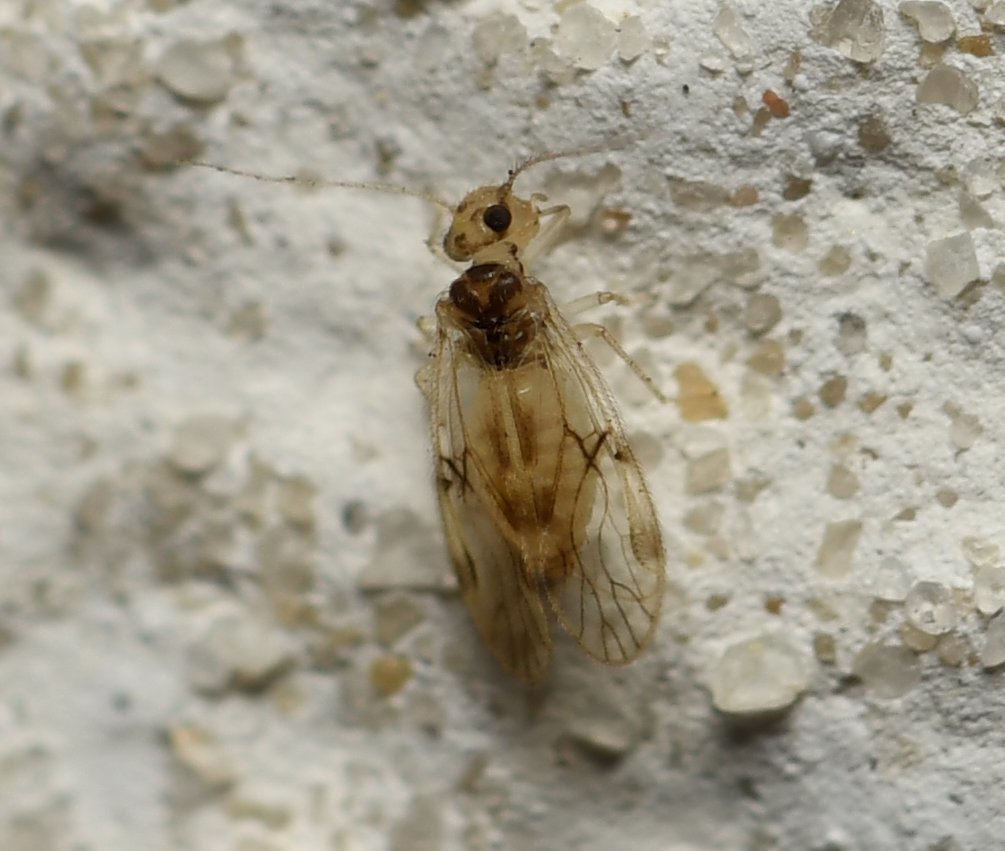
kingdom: Animalia
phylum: Arthropoda
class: Insecta
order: Psocodea
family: Pseudocaeciliidae
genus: Pseudocaecilius
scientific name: Pseudocaecilius citricola
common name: Bark lice
